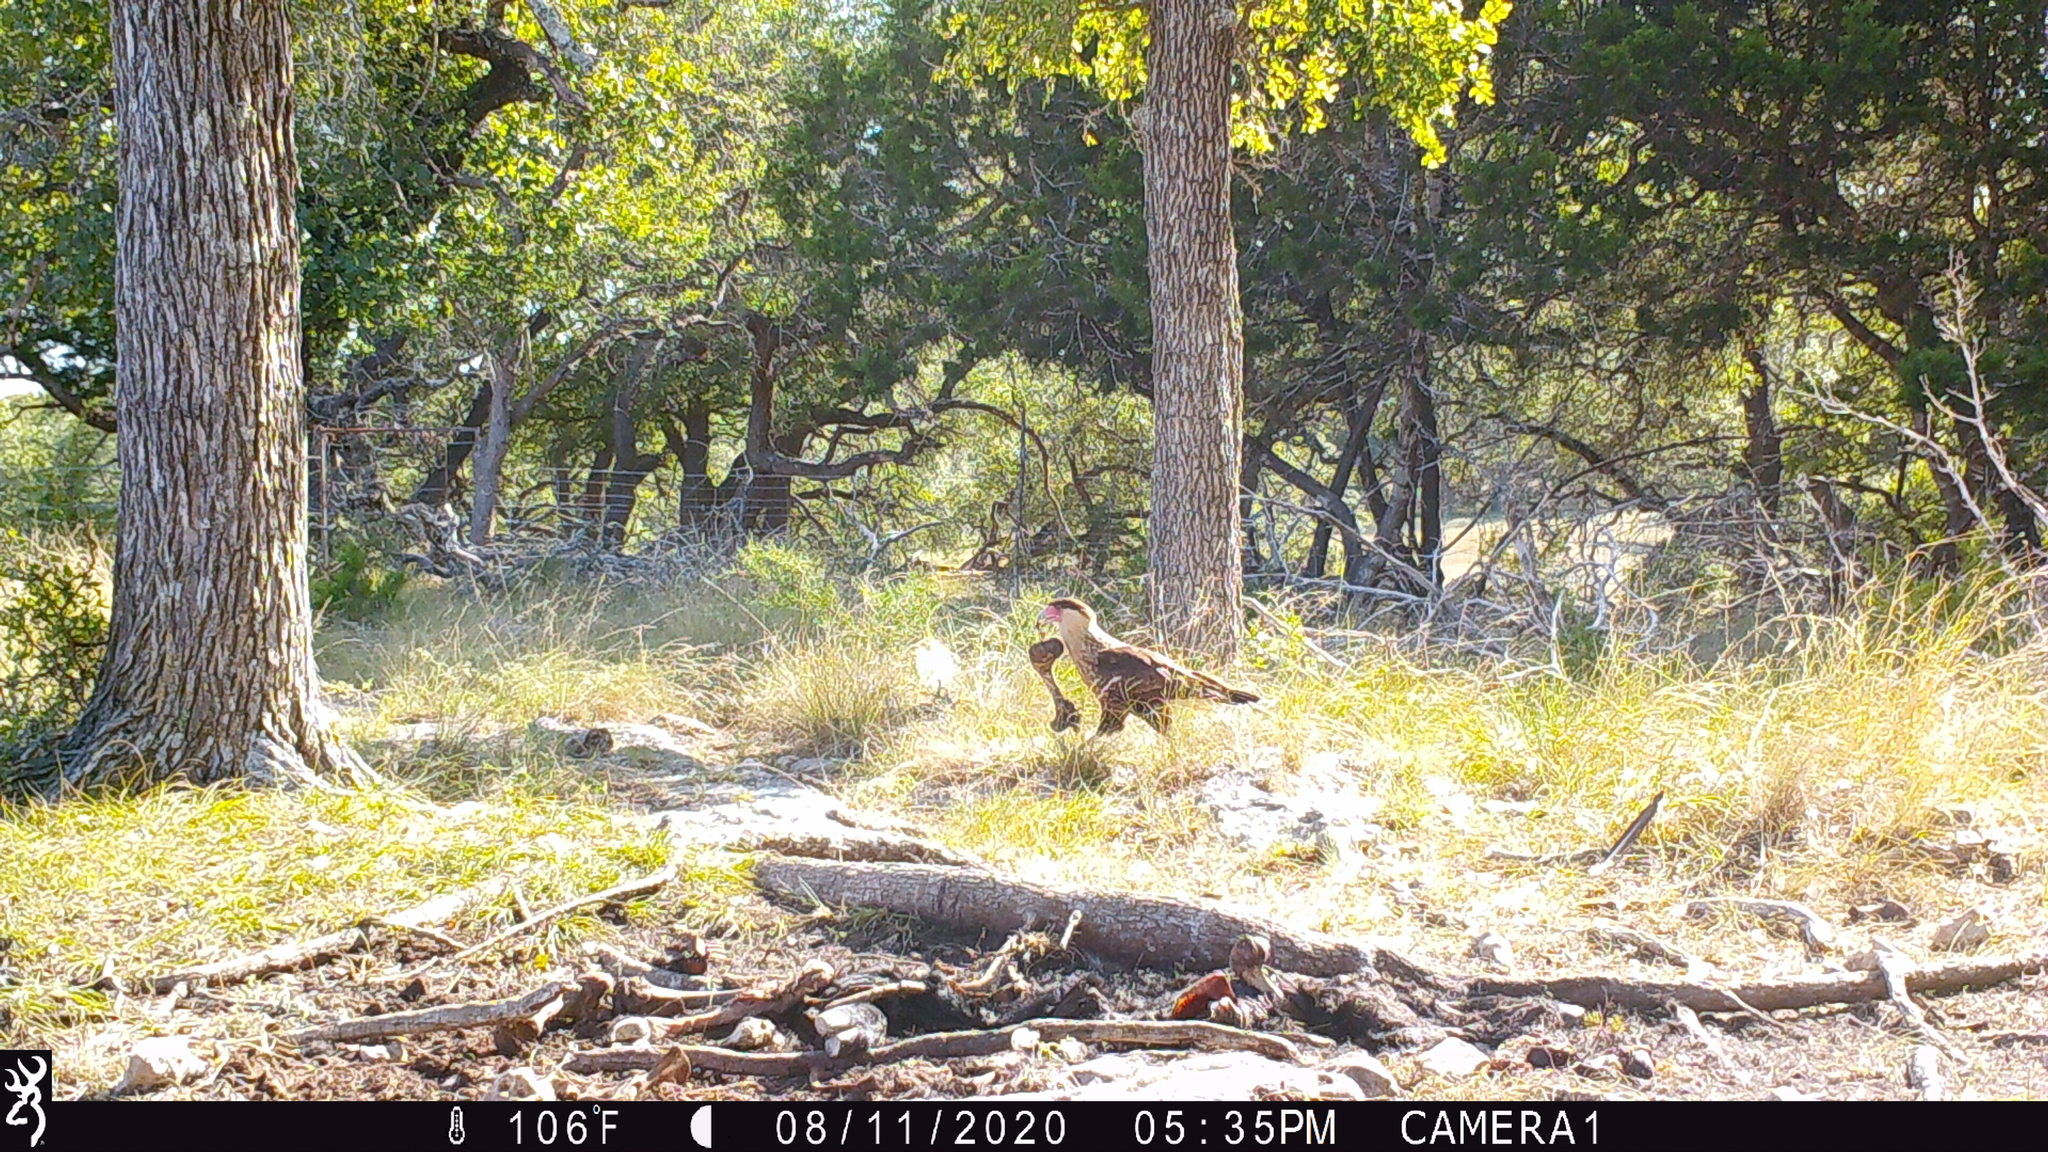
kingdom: Animalia
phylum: Chordata
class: Aves
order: Falconiformes
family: Falconidae
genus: Caracara
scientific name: Caracara plancus
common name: Southern caracara
